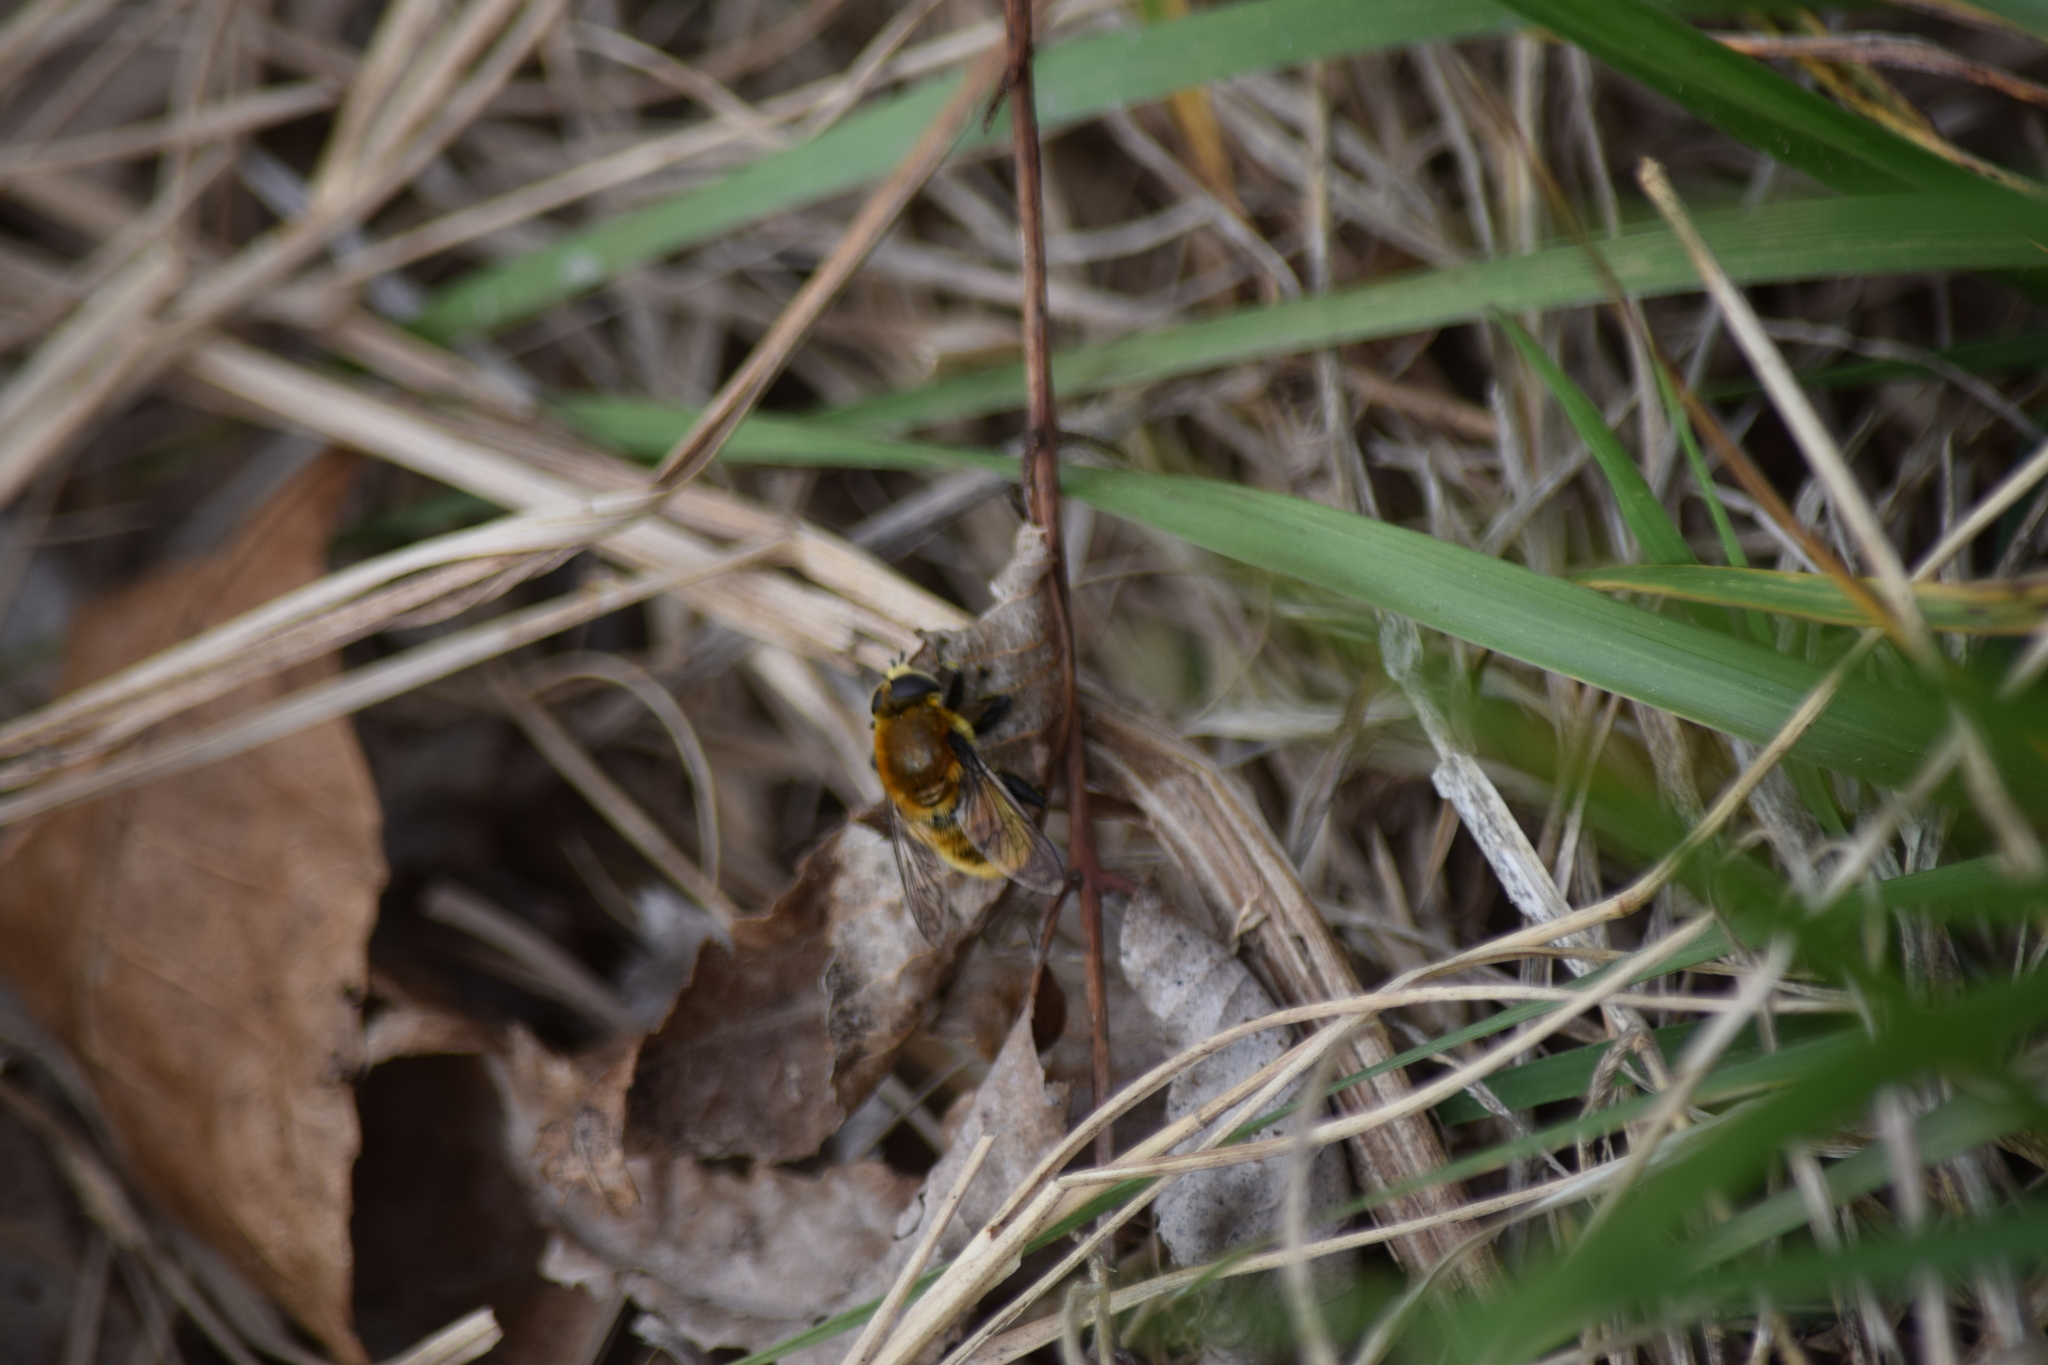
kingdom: Animalia
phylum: Arthropoda
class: Insecta
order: Diptera
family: Syrphidae
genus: Merodon
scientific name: Merodon equestris
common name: Greater bulb-fly
